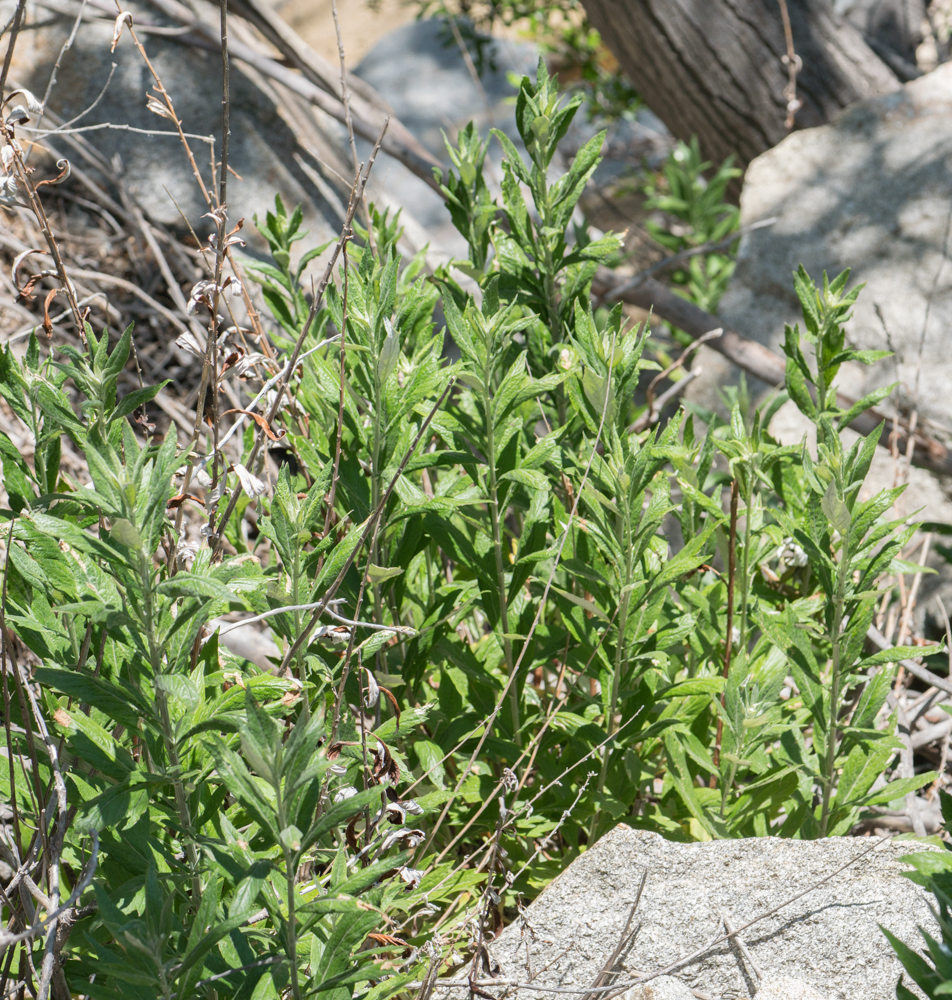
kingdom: Plantae
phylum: Tracheophyta
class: Magnoliopsida
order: Asterales
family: Asteraceae
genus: Artemisia
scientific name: Artemisia douglasiana
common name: Northwest mugwort
